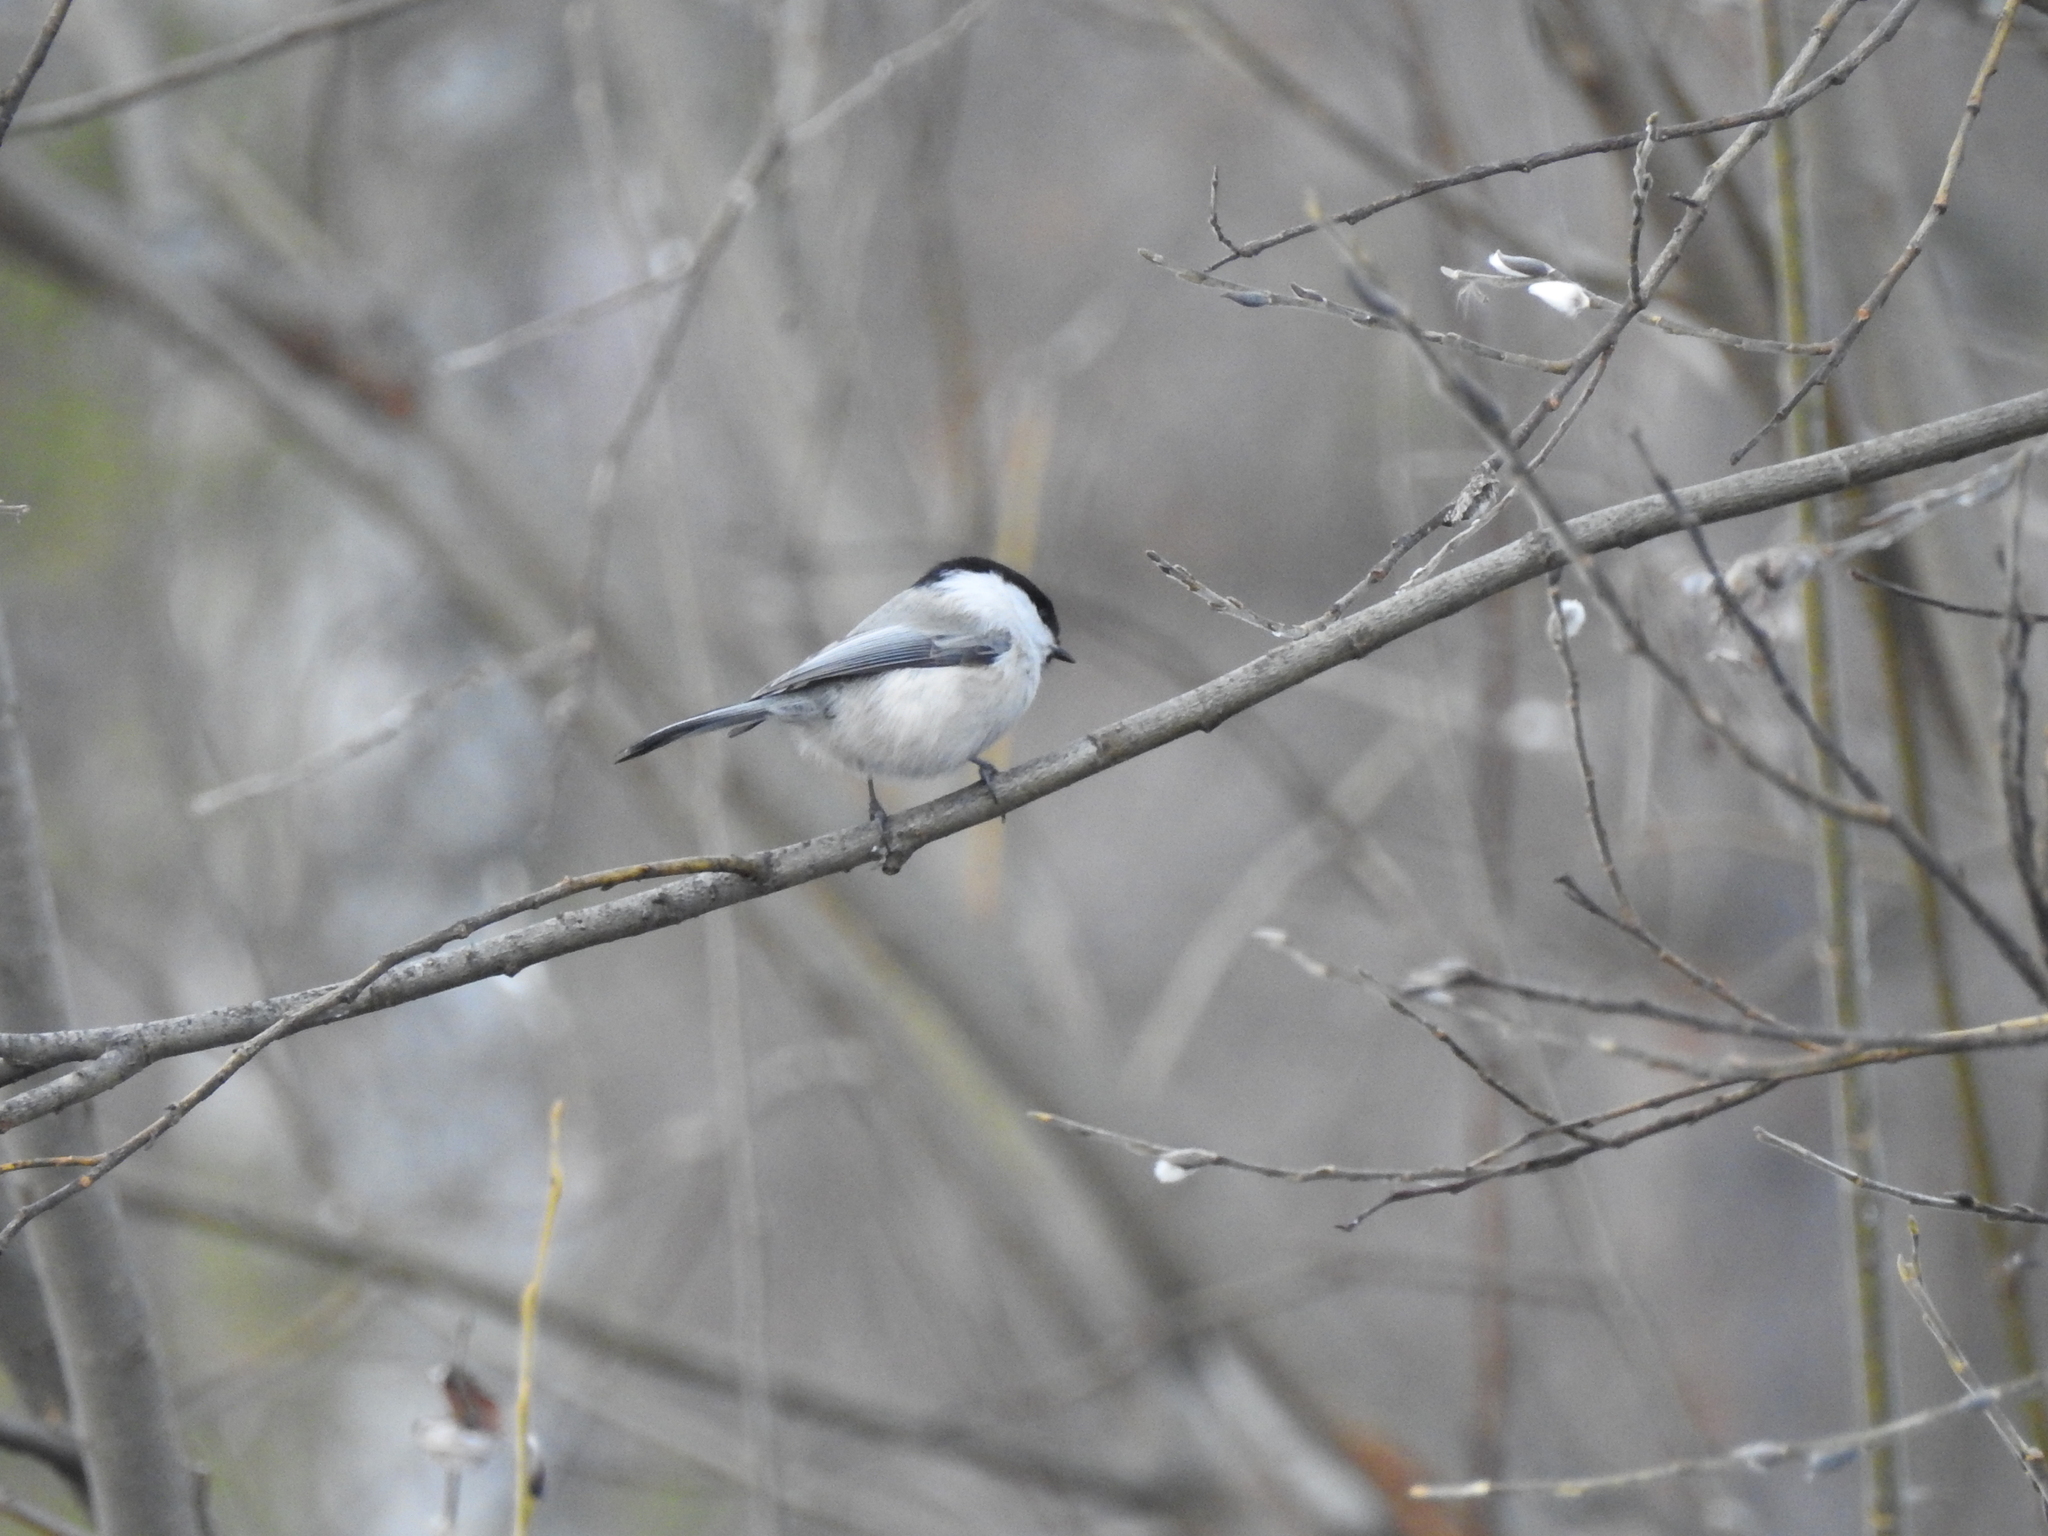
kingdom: Animalia
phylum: Chordata
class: Aves
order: Passeriformes
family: Paridae
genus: Poecile
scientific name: Poecile montanus
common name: Willow tit
